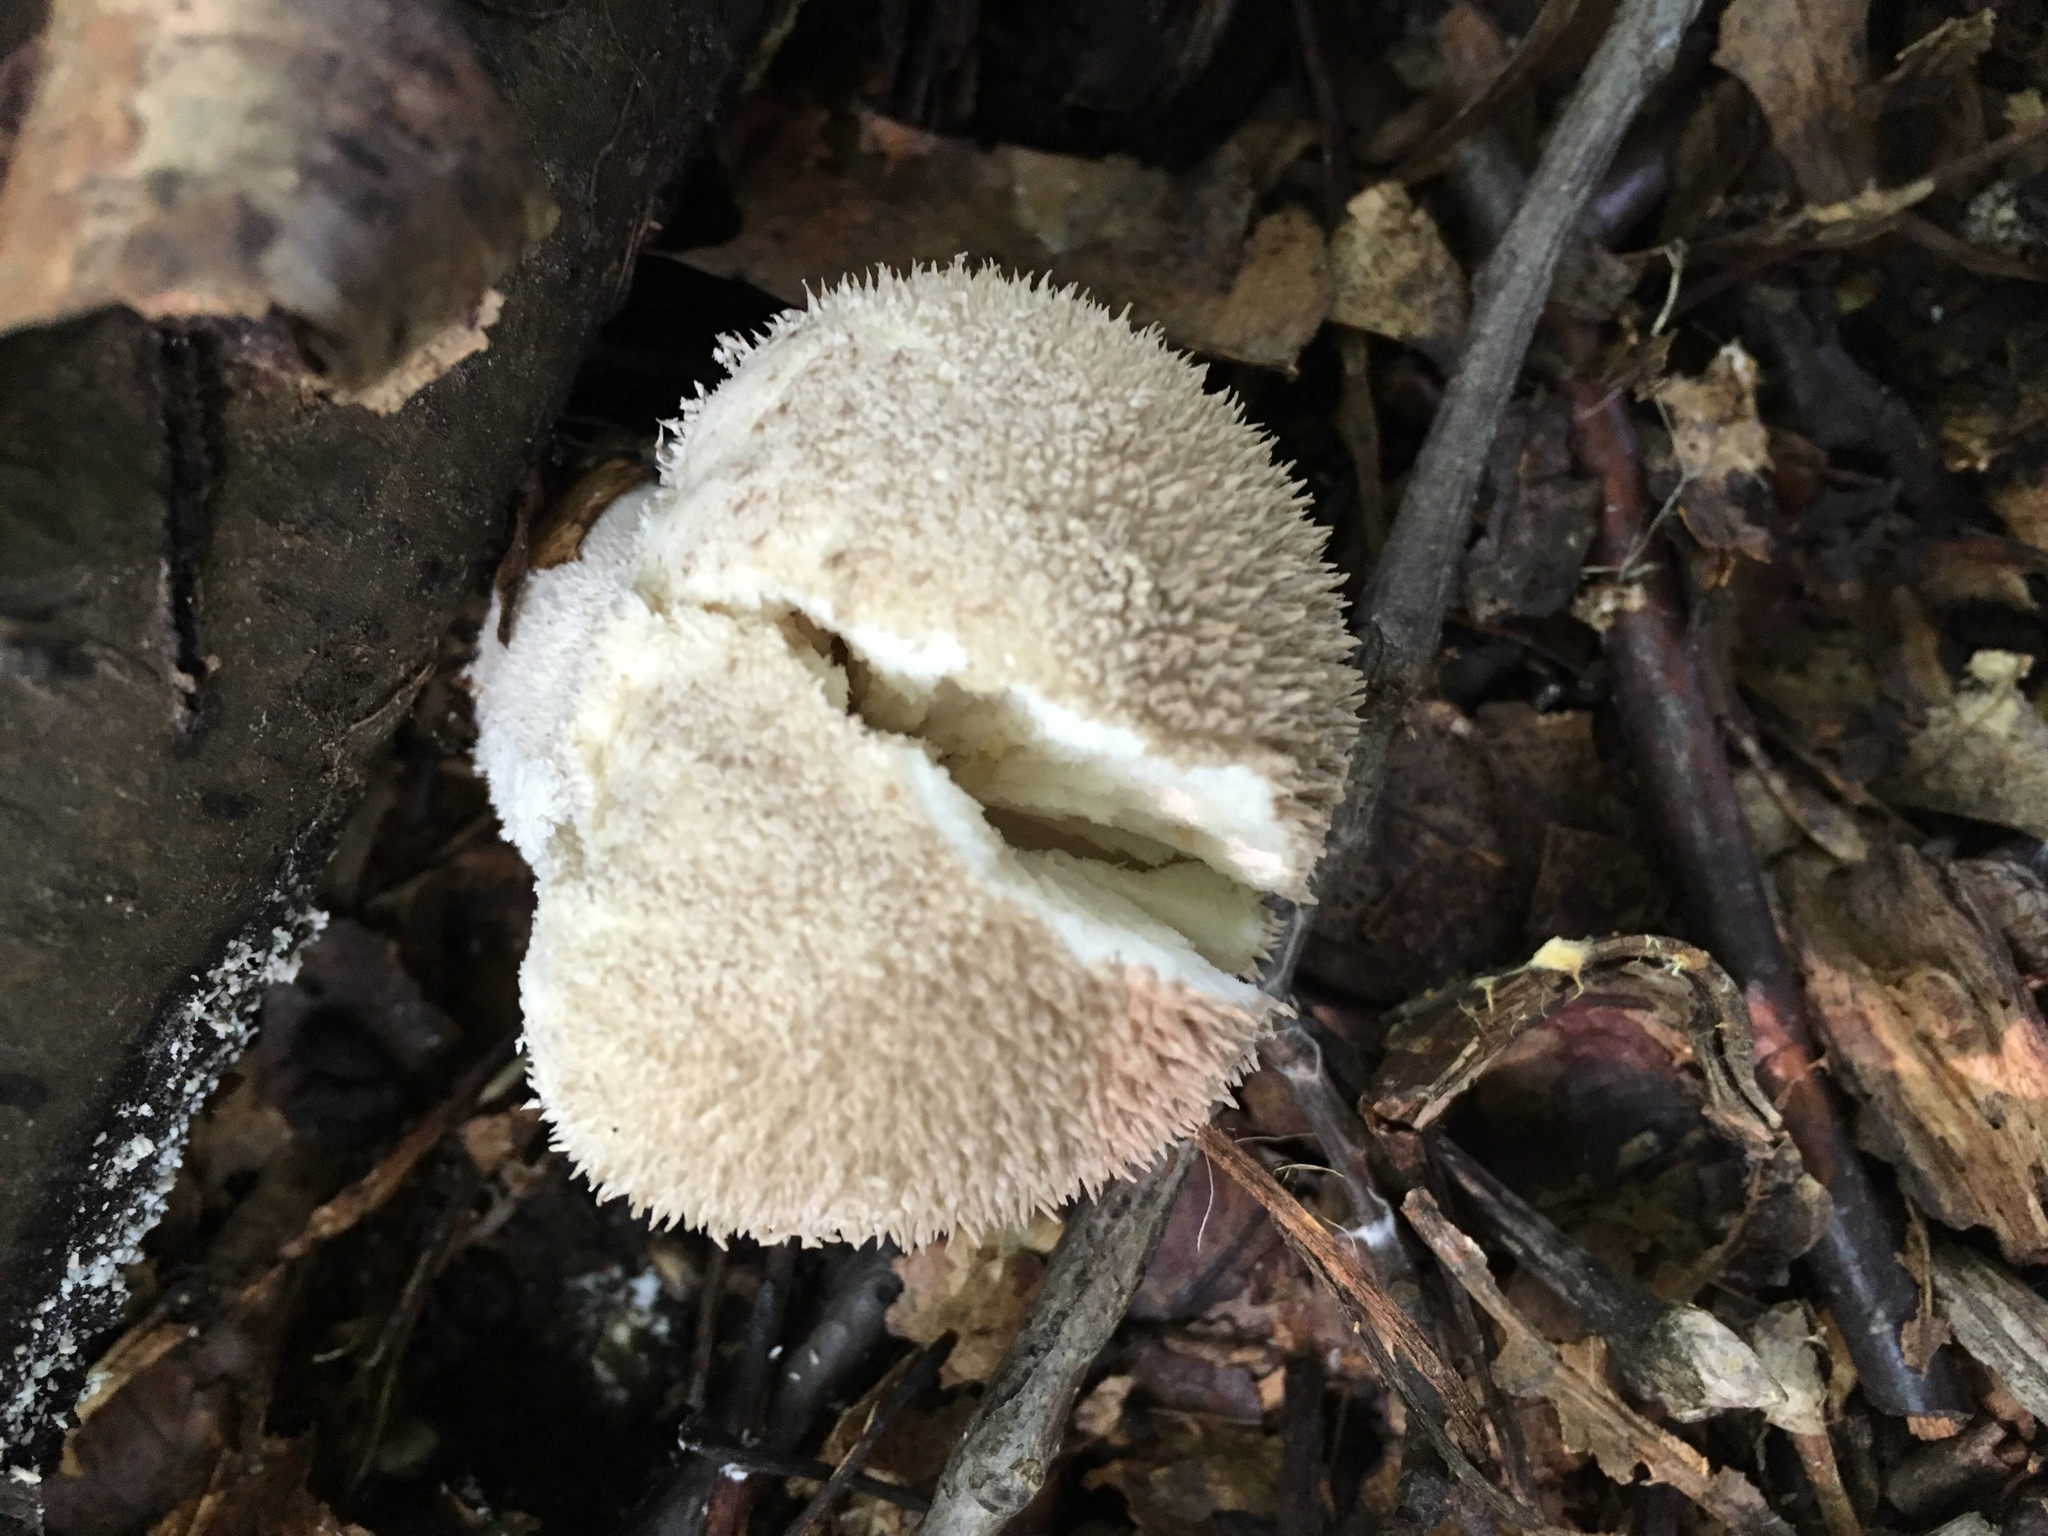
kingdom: Fungi
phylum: Basidiomycota
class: Agaricomycetes
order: Agaricales
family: Lycoperdaceae
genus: Lycoperdon
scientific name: Lycoperdon echinatum
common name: Hedgehog puffball
